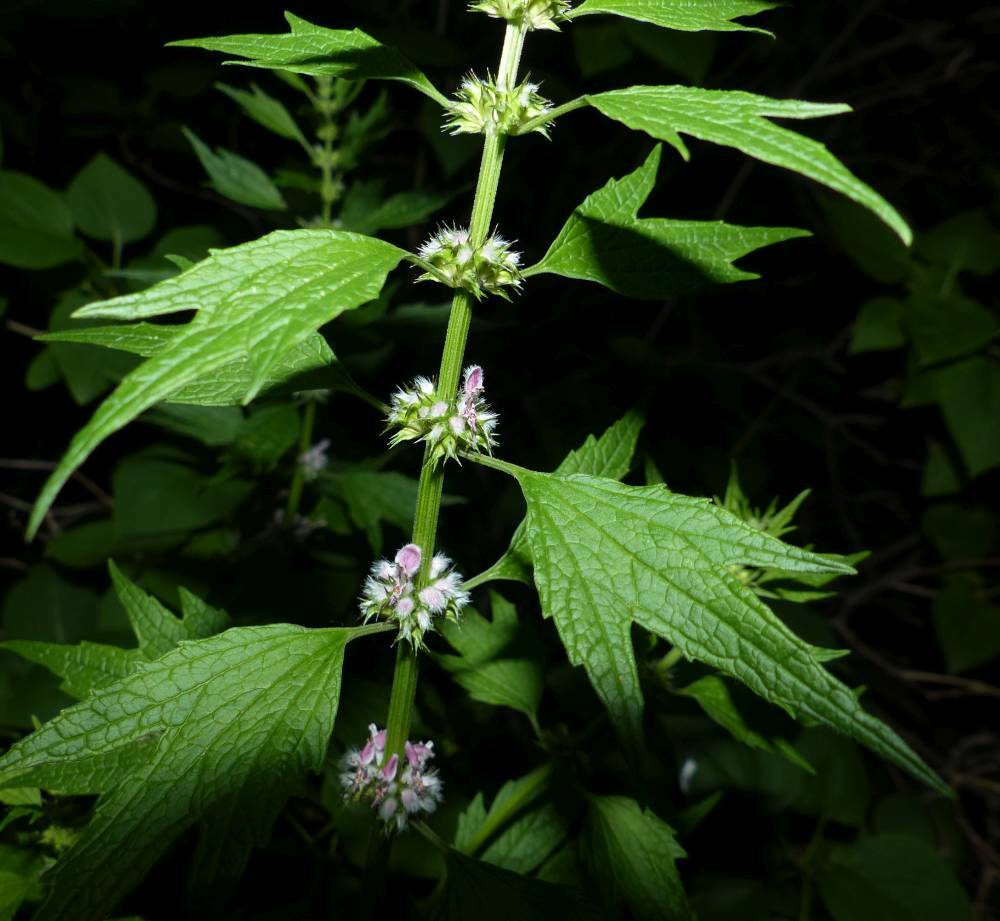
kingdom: Plantae
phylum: Tracheophyta
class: Magnoliopsida
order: Lamiales
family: Lamiaceae
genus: Leonurus
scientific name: Leonurus cardiaca
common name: Motherwort
